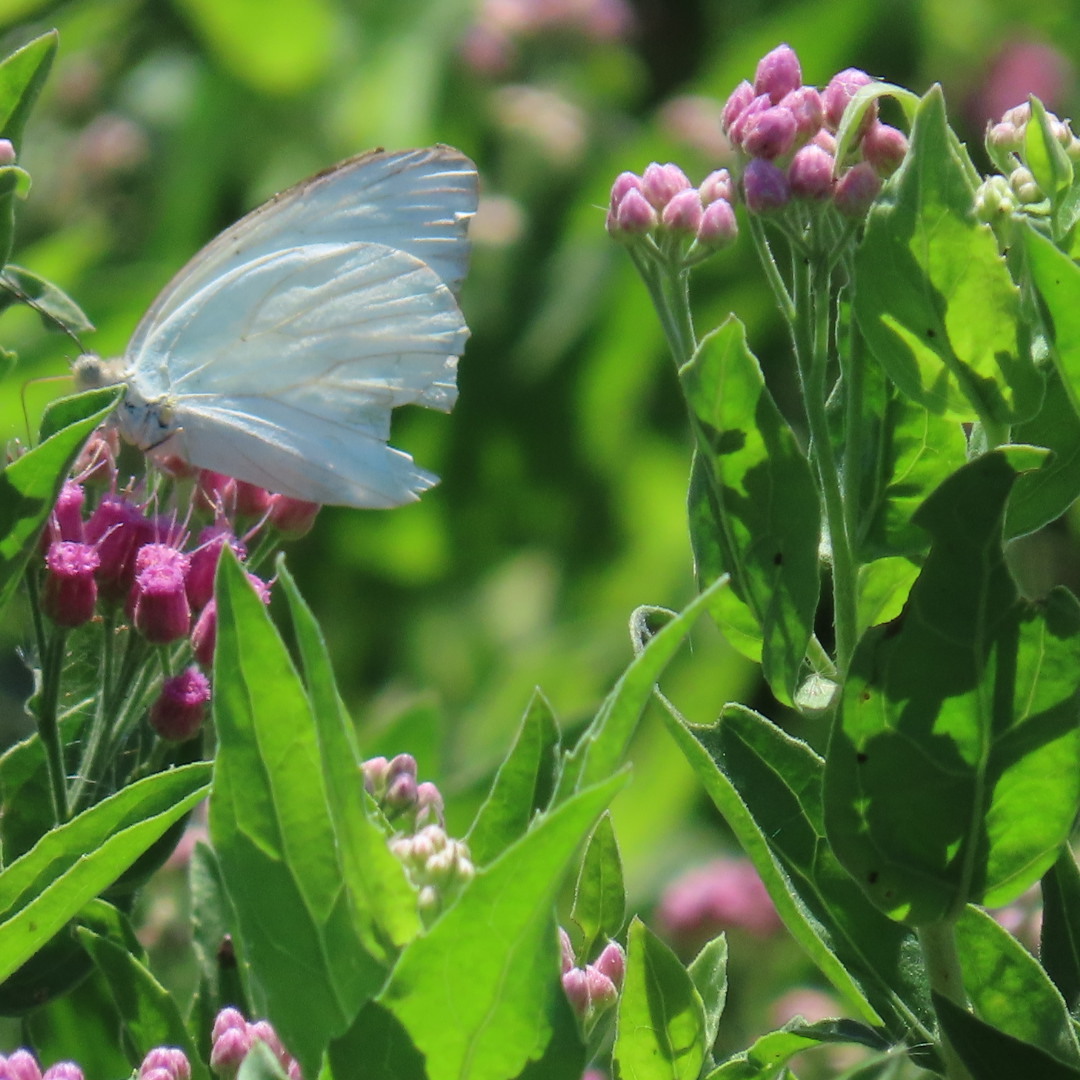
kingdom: Animalia
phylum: Arthropoda
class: Insecta
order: Lepidoptera
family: Pieridae
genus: Ascia
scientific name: Ascia monuste
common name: Great southern white
